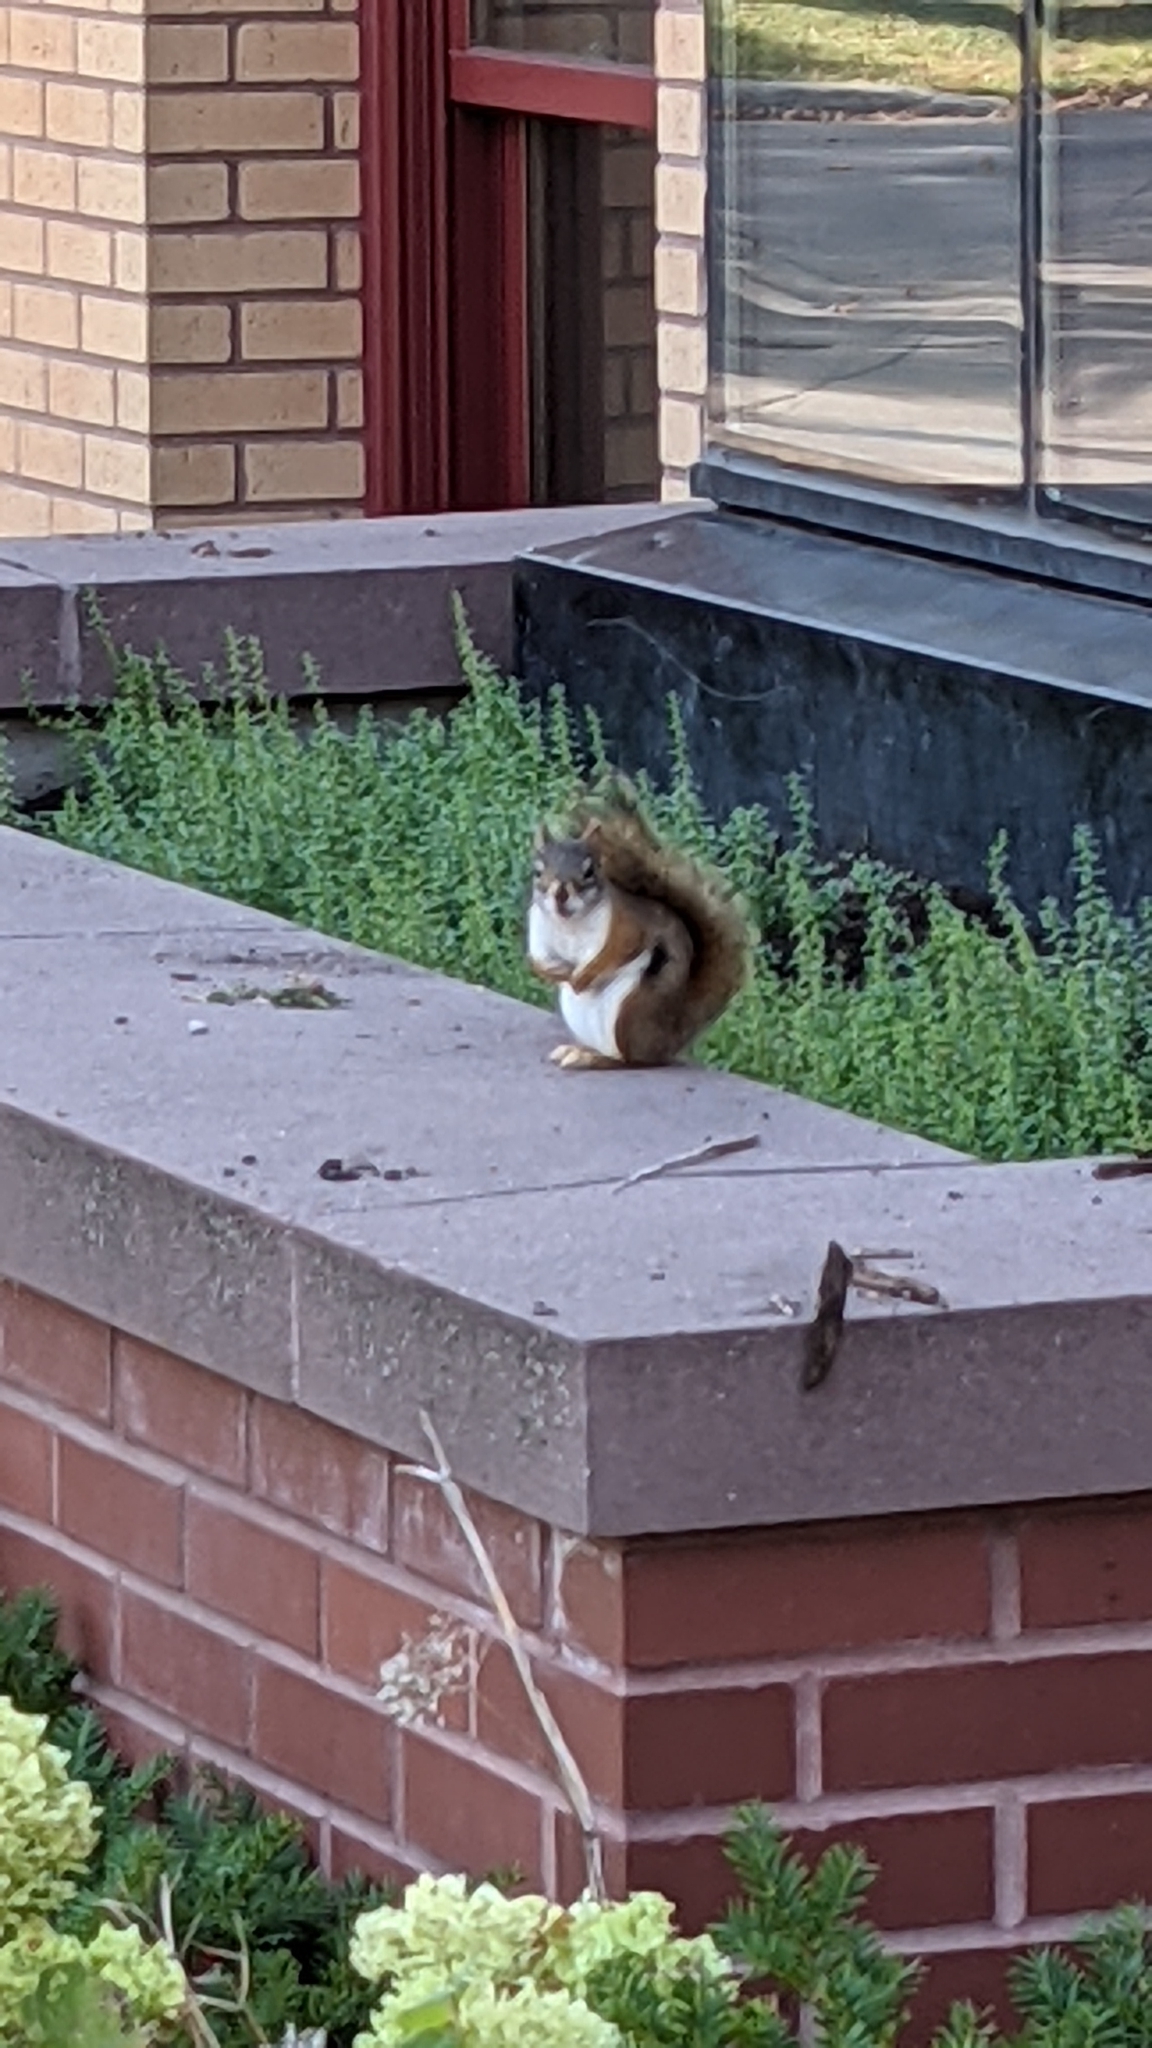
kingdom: Animalia
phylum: Chordata
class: Mammalia
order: Rodentia
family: Sciuridae
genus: Tamiasciurus
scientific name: Tamiasciurus hudsonicus
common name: Red squirrel
